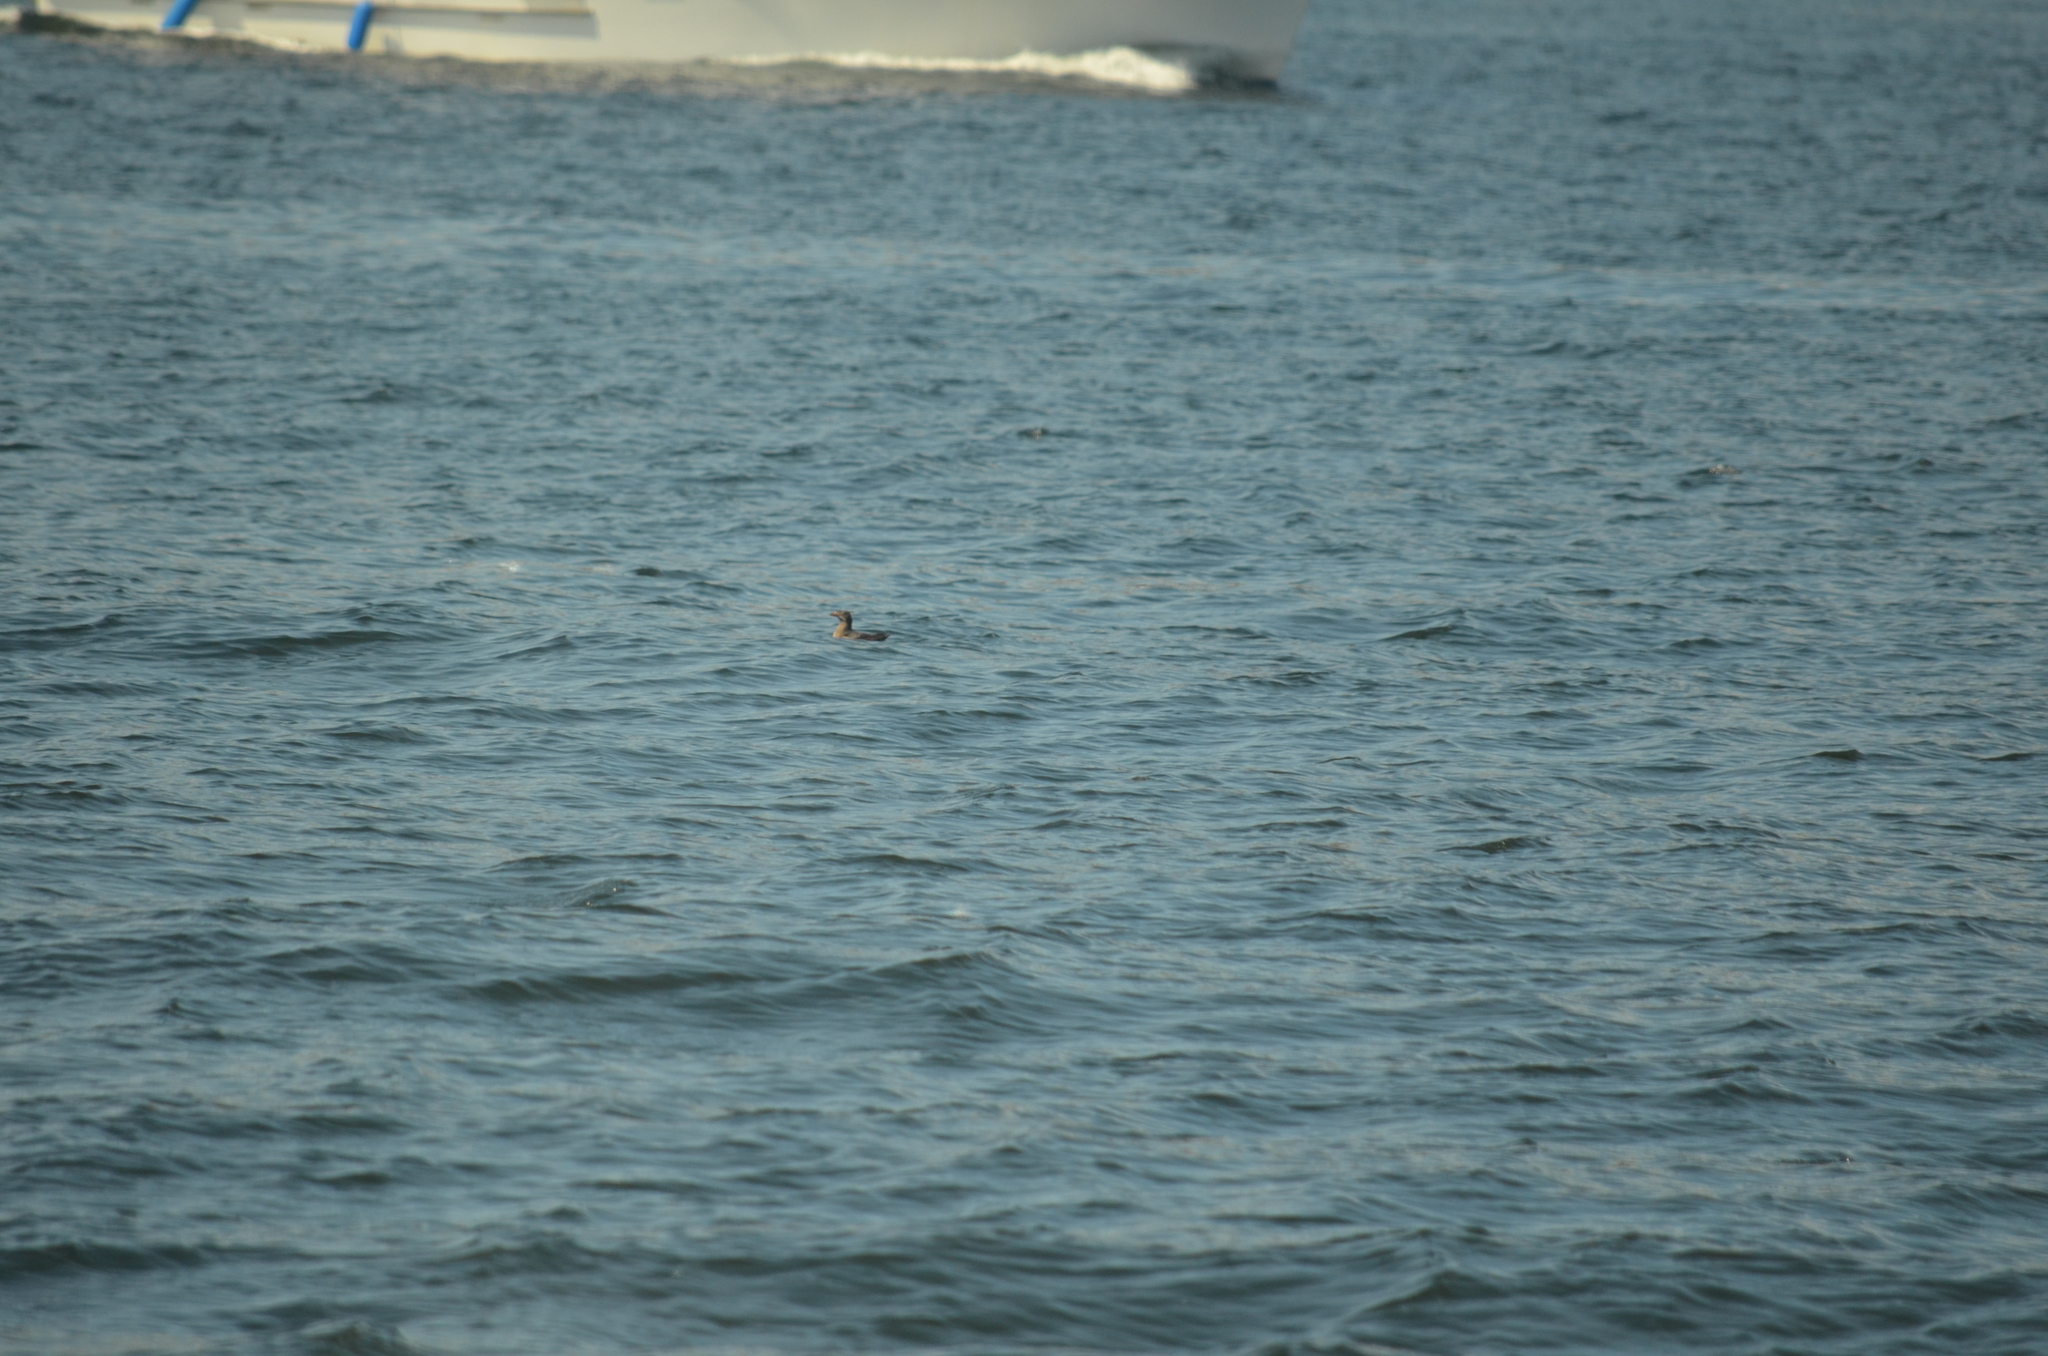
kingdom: Animalia
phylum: Chordata
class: Aves
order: Charadriiformes
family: Alcidae
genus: Cerorhinca
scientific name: Cerorhinca monocerata
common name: Rhinoceros auklet
